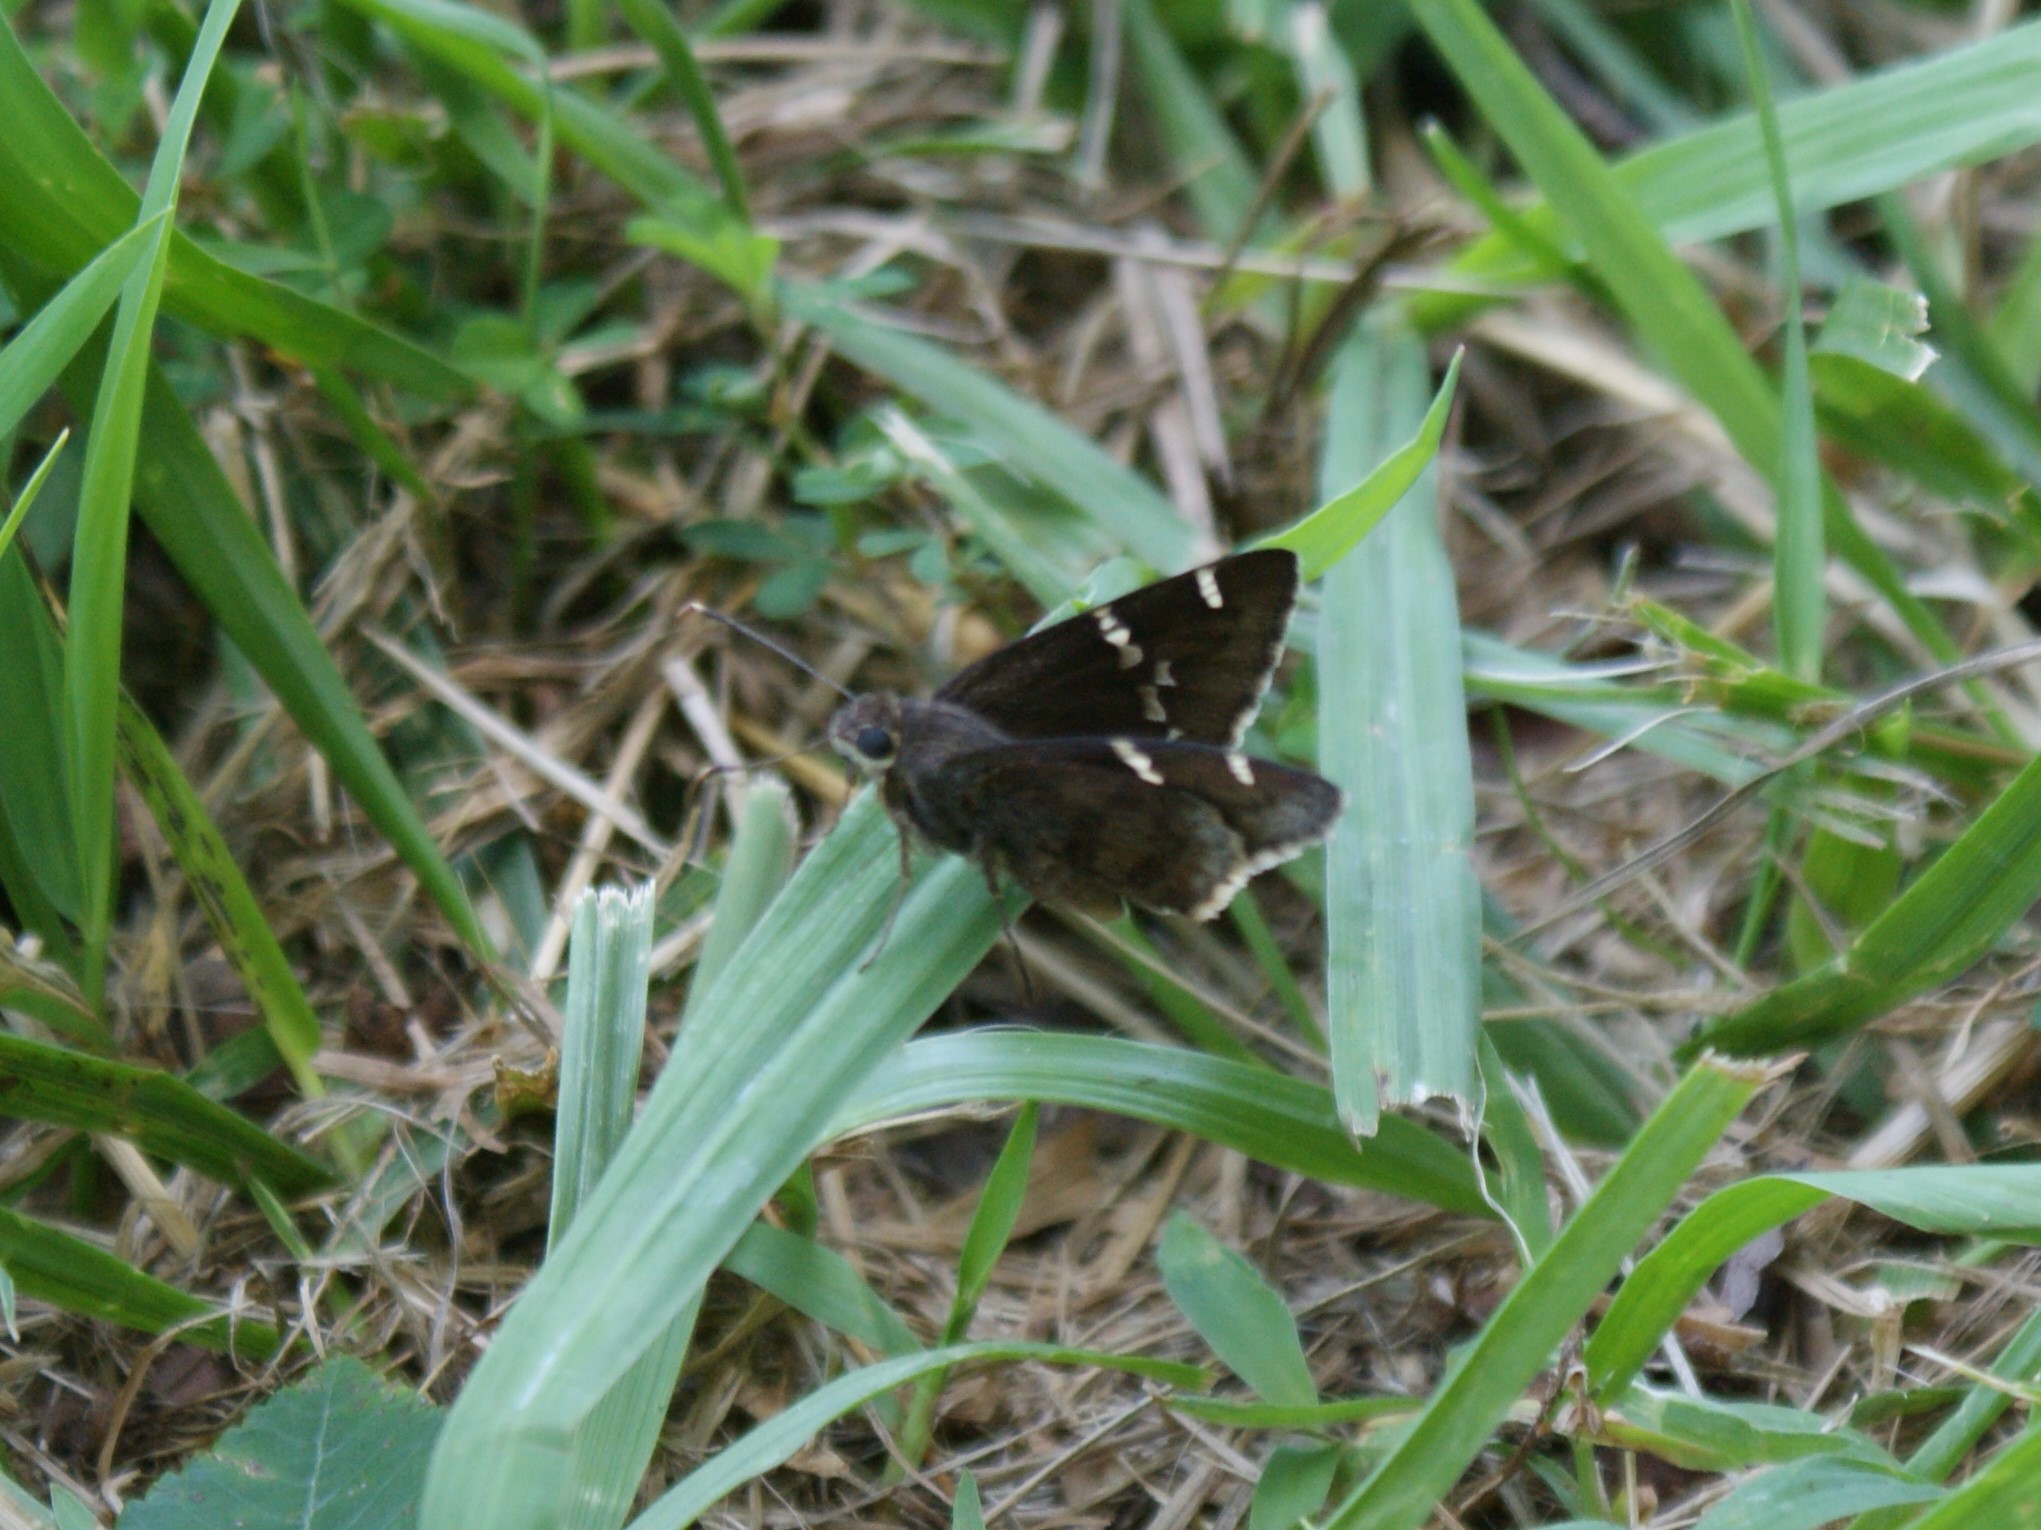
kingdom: Animalia
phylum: Arthropoda
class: Insecta
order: Lepidoptera
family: Hesperiidae
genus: Thorybes
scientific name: Thorybes daunus
